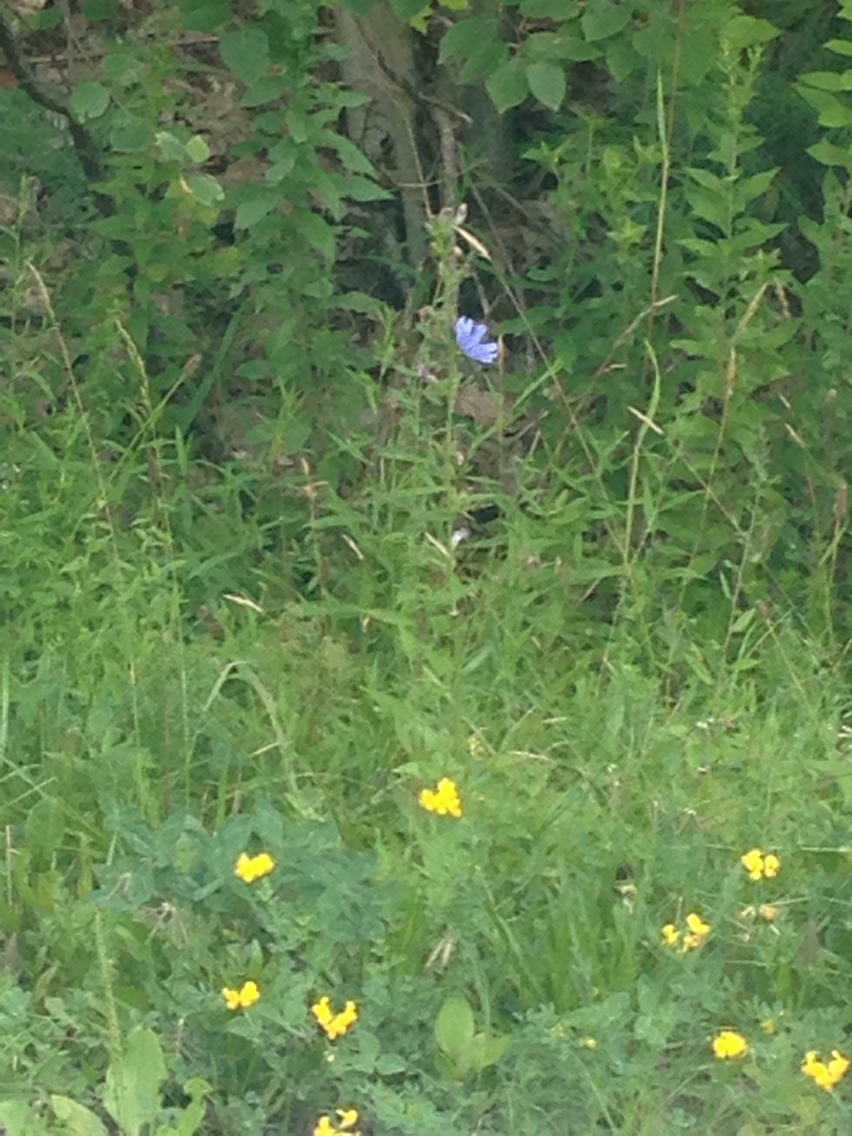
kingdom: Plantae
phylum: Tracheophyta
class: Magnoliopsida
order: Asterales
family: Asteraceae
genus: Cichorium
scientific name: Cichorium intybus
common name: Chicory
